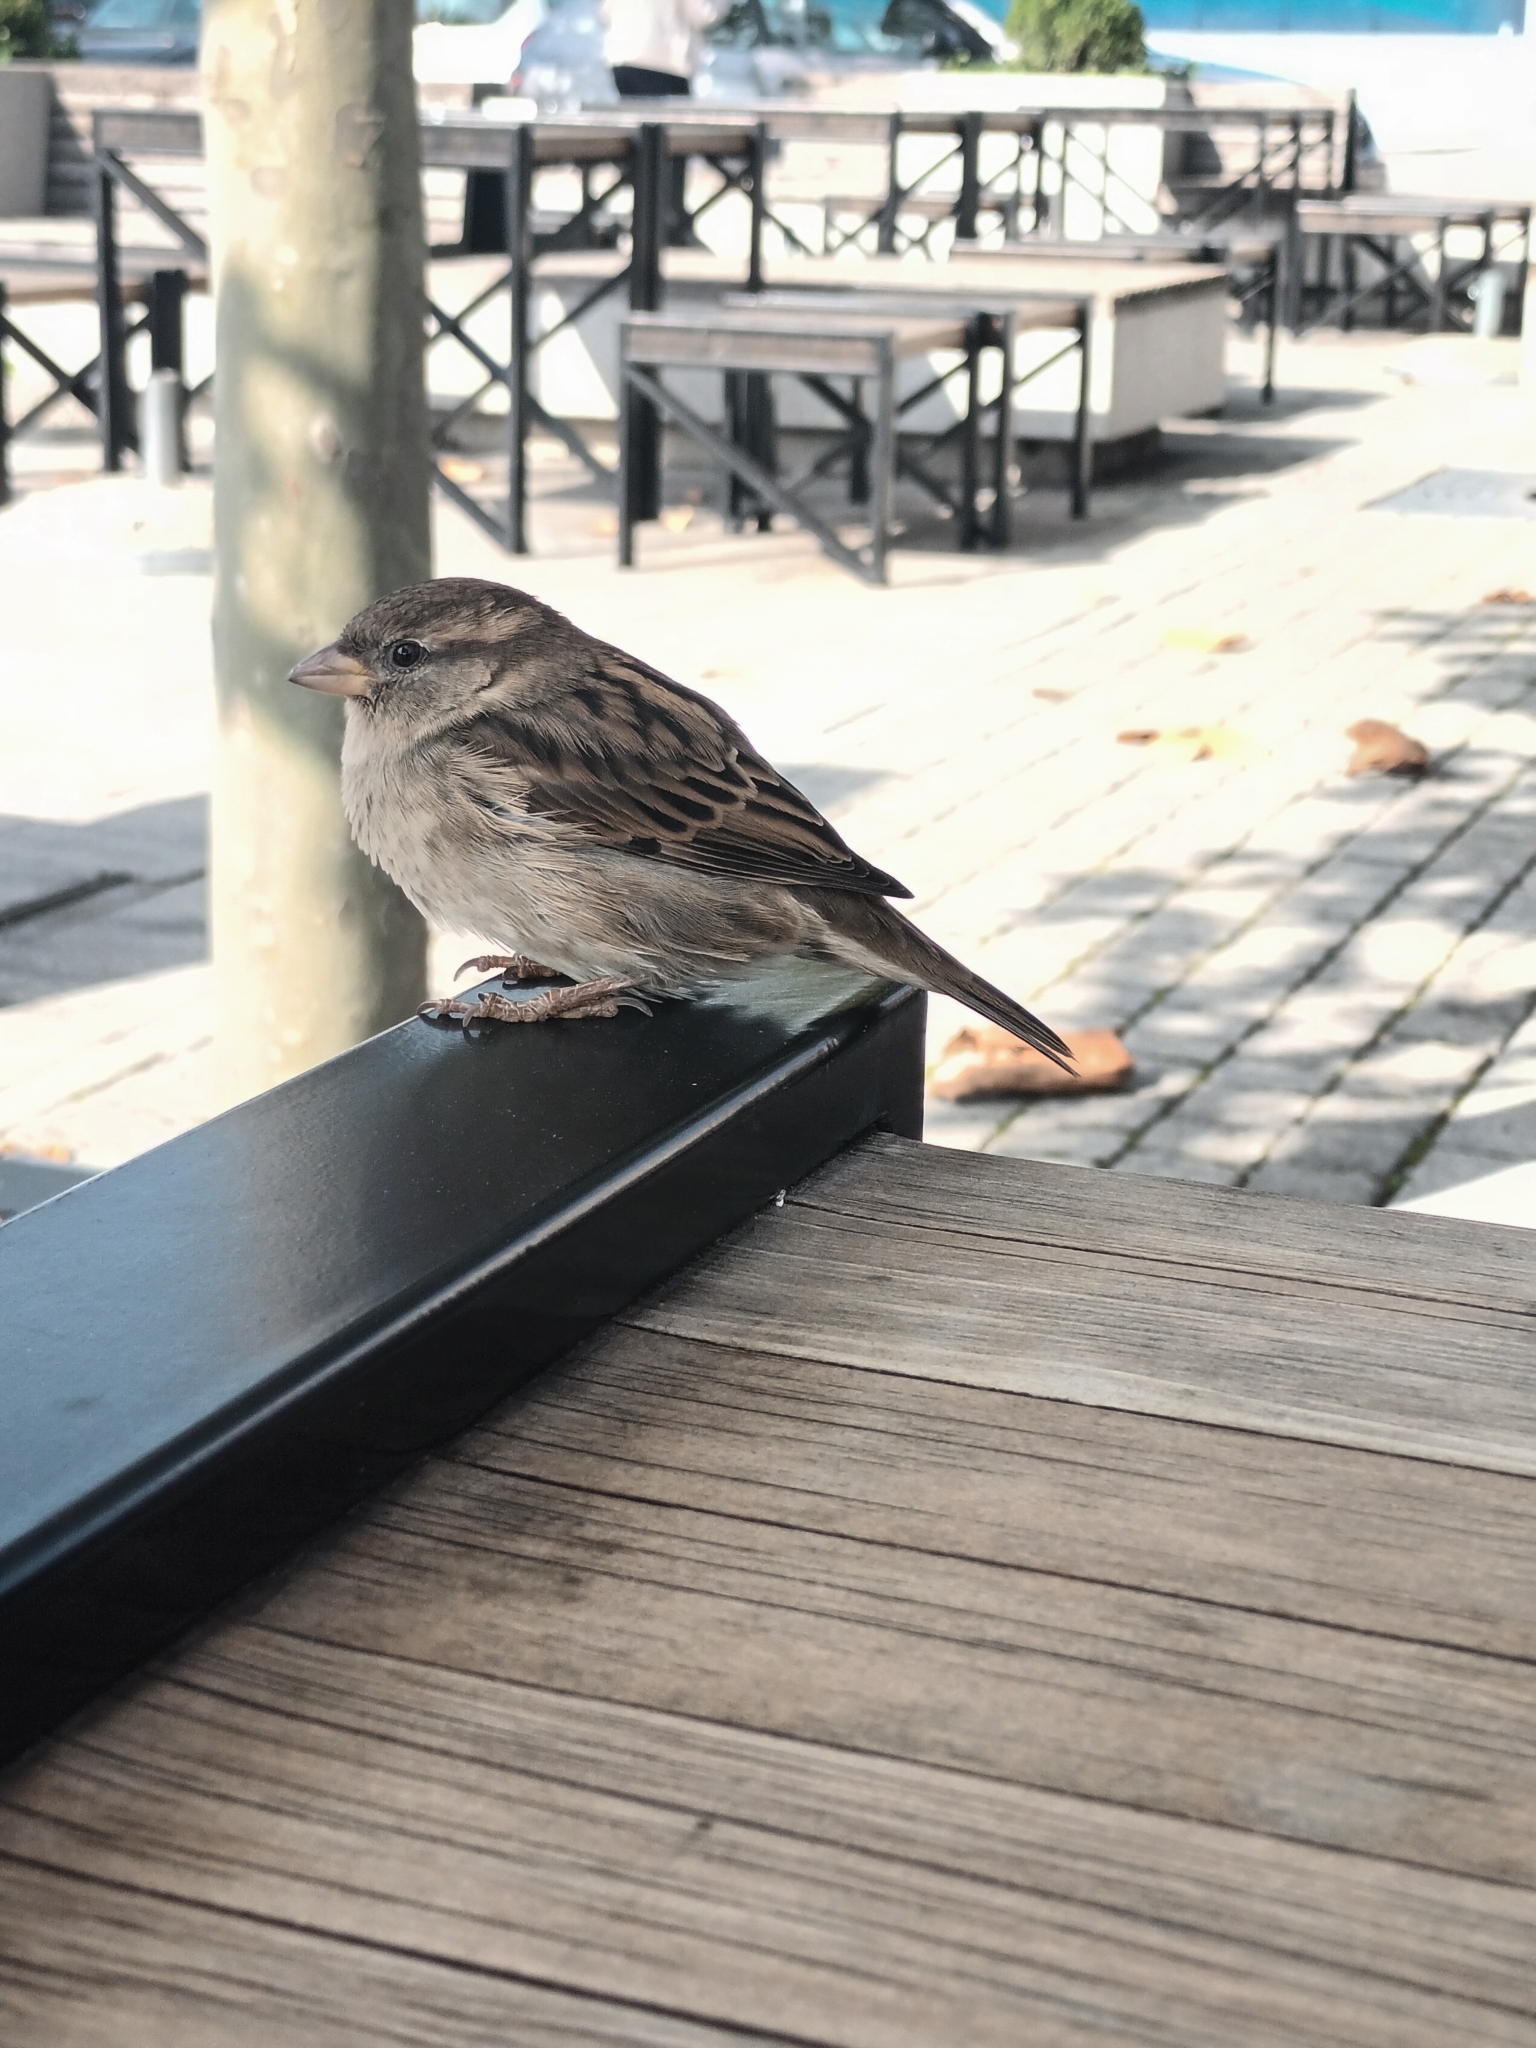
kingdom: Animalia
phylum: Chordata
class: Aves
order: Passeriformes
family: Passeridae
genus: Passer
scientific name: Passer domesticus
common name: House sparrow
